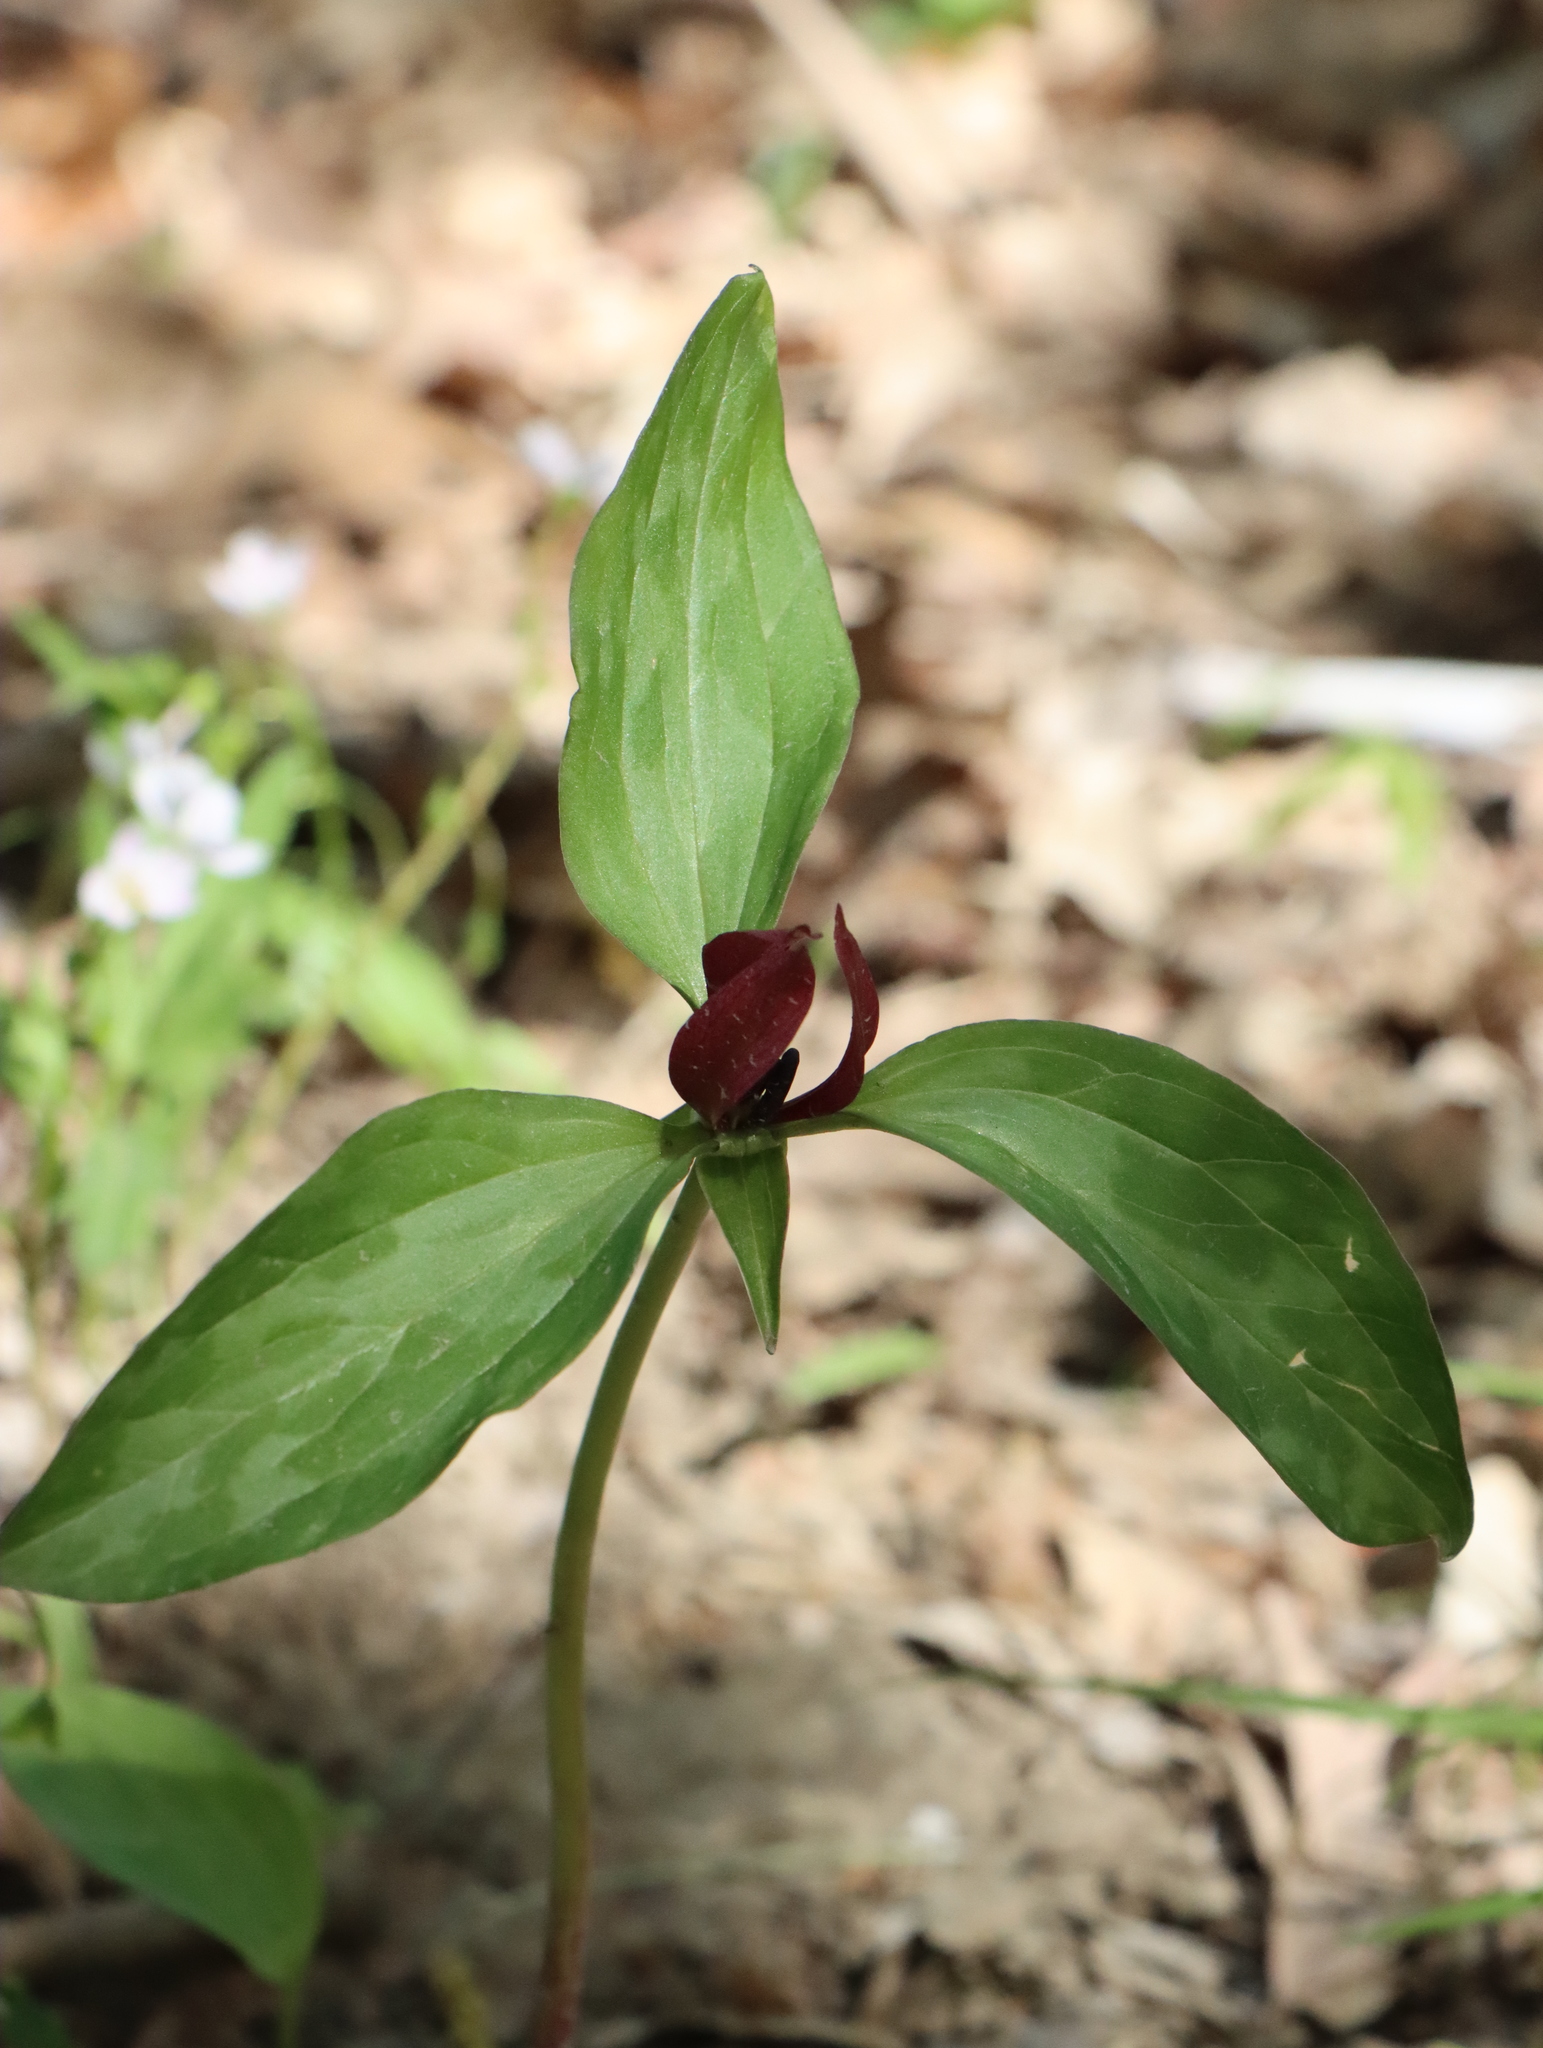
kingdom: Plantae
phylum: Tracheophyta
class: Liliopsida
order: Liliales
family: Melanthiaceae
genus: Trillium
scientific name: Trillium recurvatum
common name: Bloody butcher
